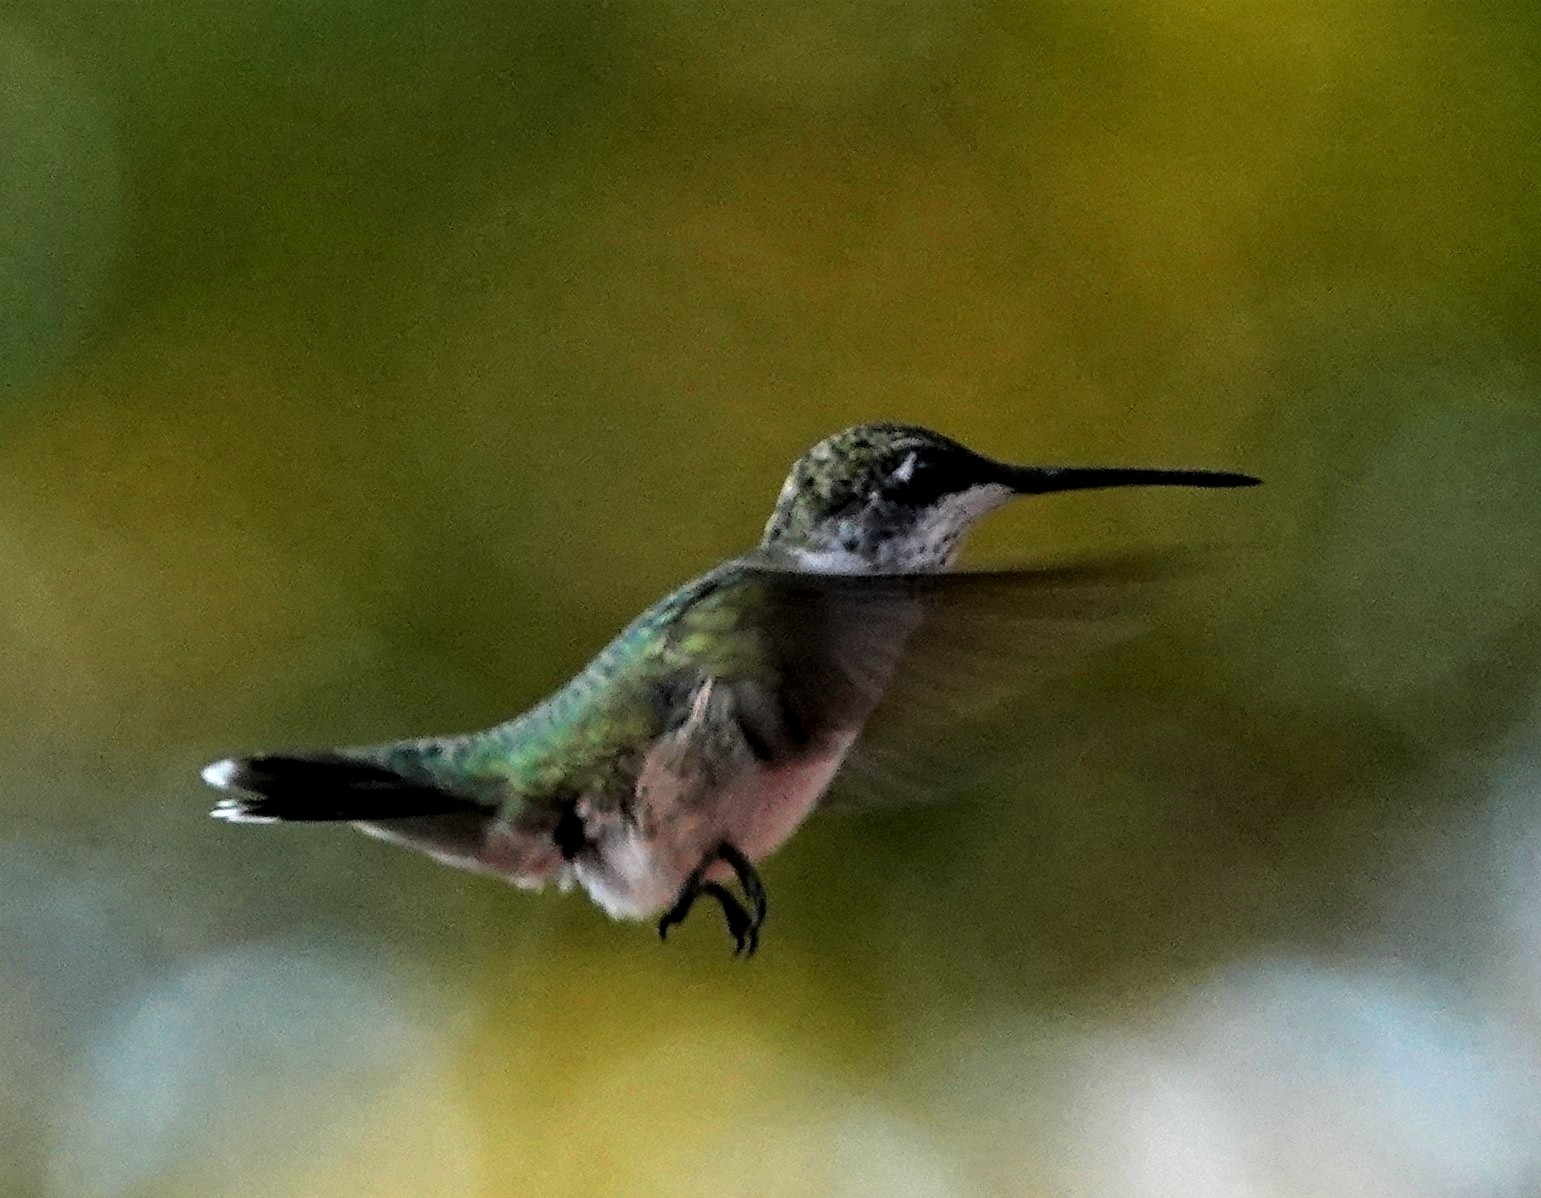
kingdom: Animalia
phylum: Chordata
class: Aves
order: Apodiformes
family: Trochilidae
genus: Archilochus
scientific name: Archilochus colubris
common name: Ruby-throated hummingbird
